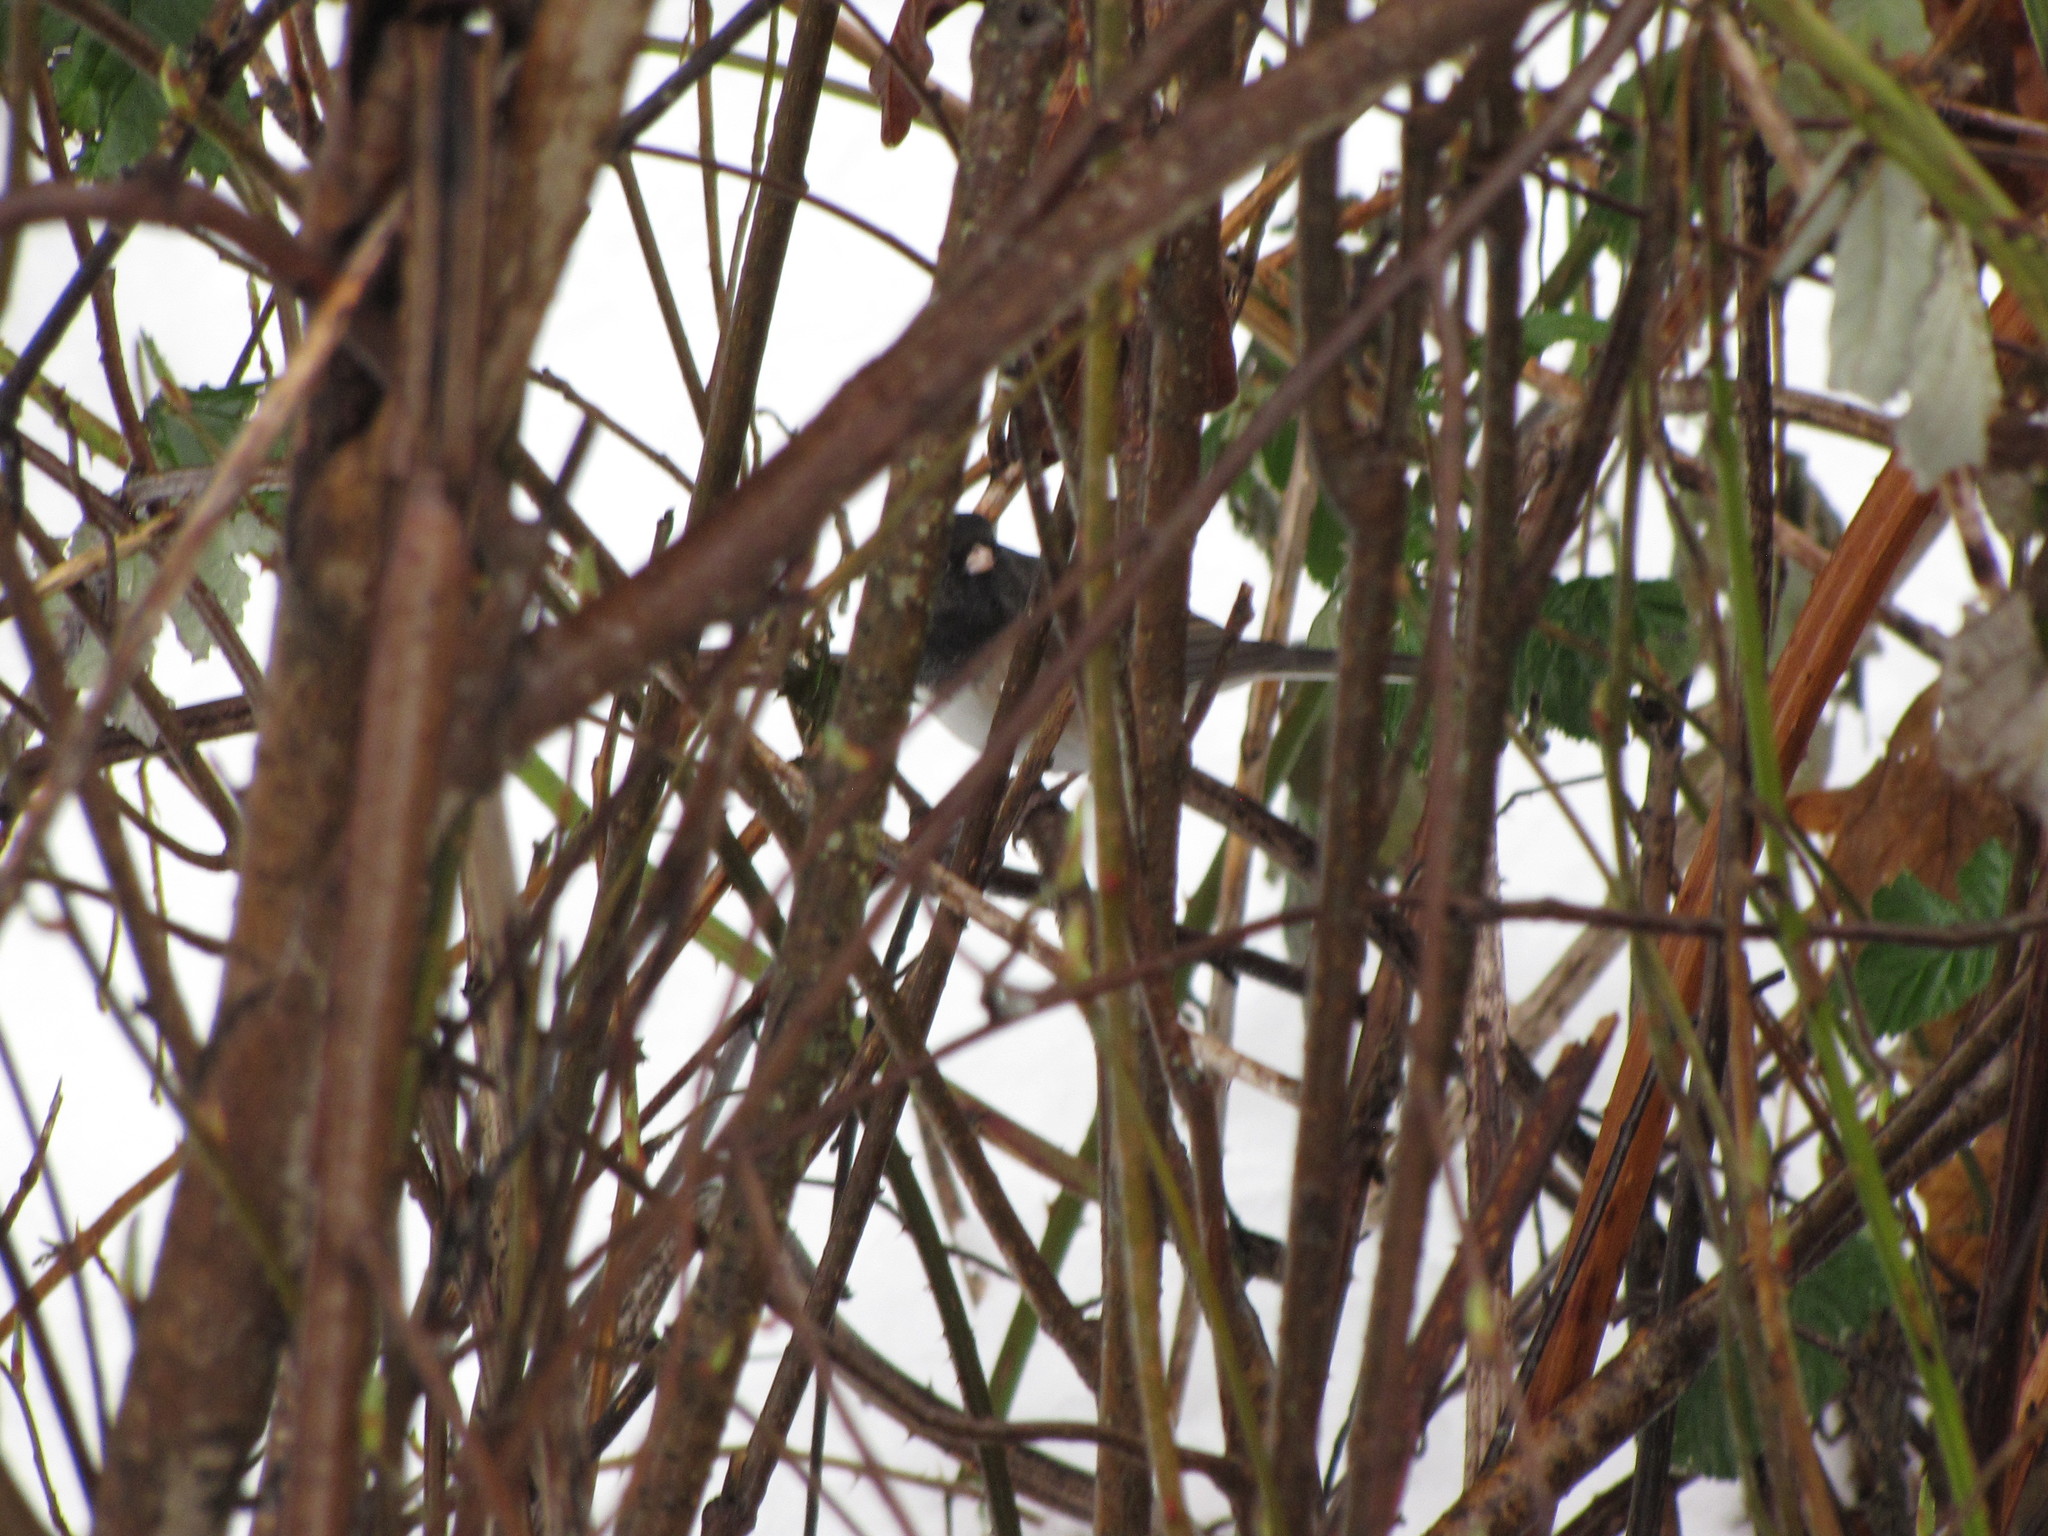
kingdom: Animalia
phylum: Chordata
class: Aves
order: Passeriformes
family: Passerellidae
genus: Junco
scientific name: Junco hyemalis
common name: Dark-eyed junco
